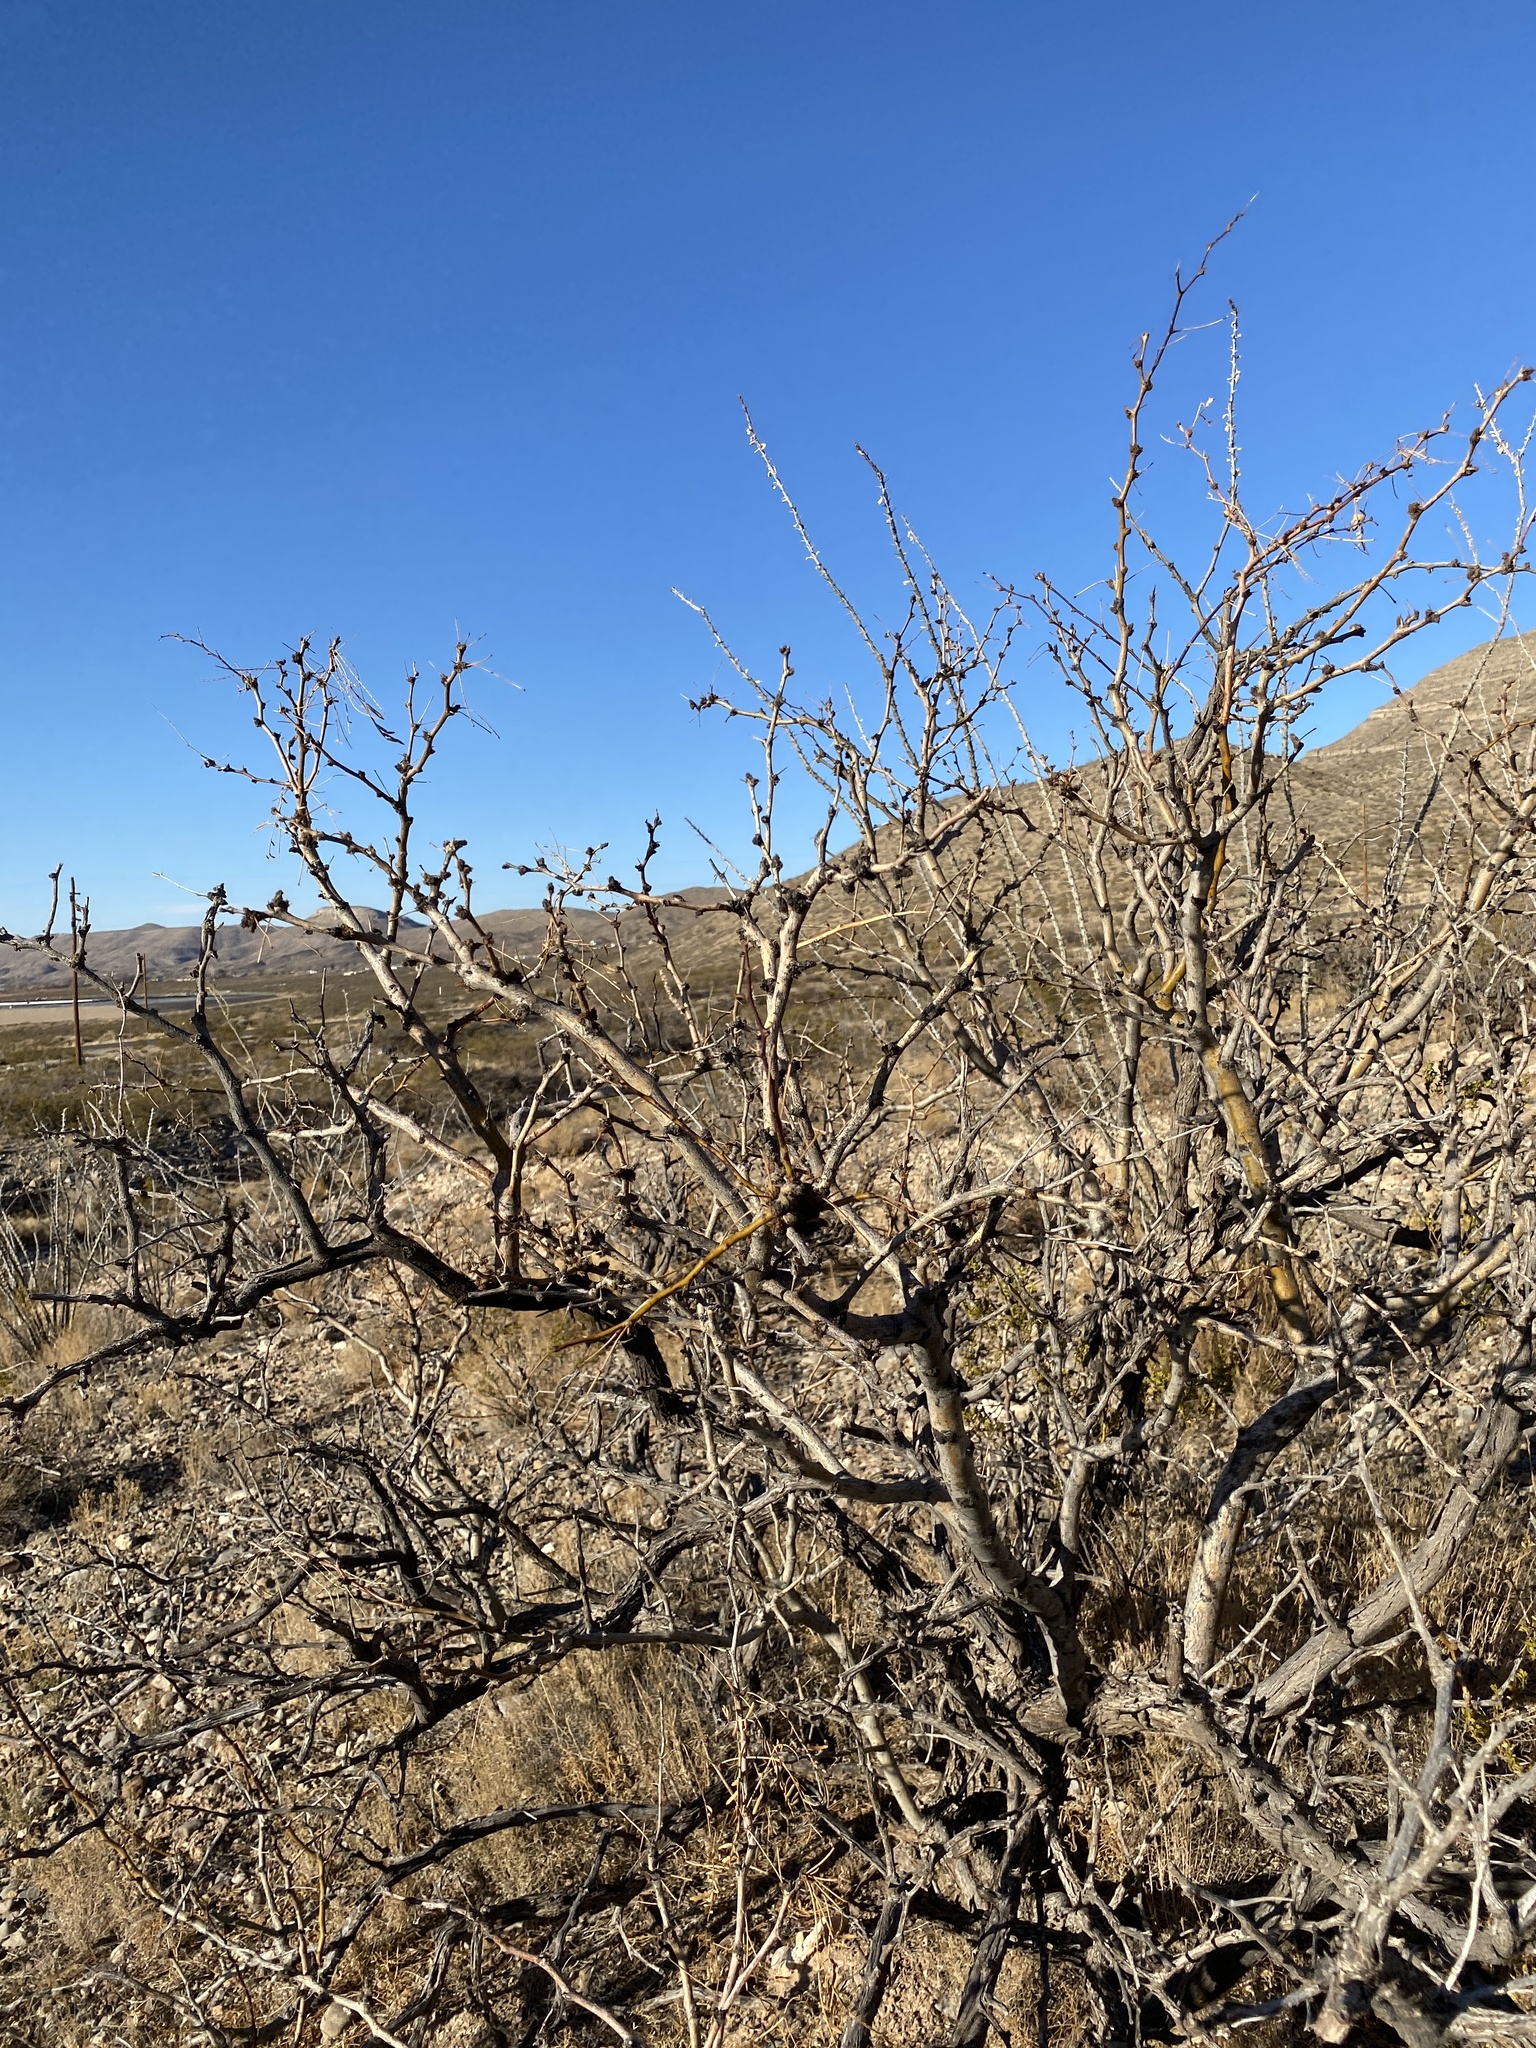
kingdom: Plantae
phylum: Tracheophyta
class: Magnoliopsida
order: Fabales
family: Fabaceae
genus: Prosopis
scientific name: Prosopis glandulosa
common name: Honey mesquite
